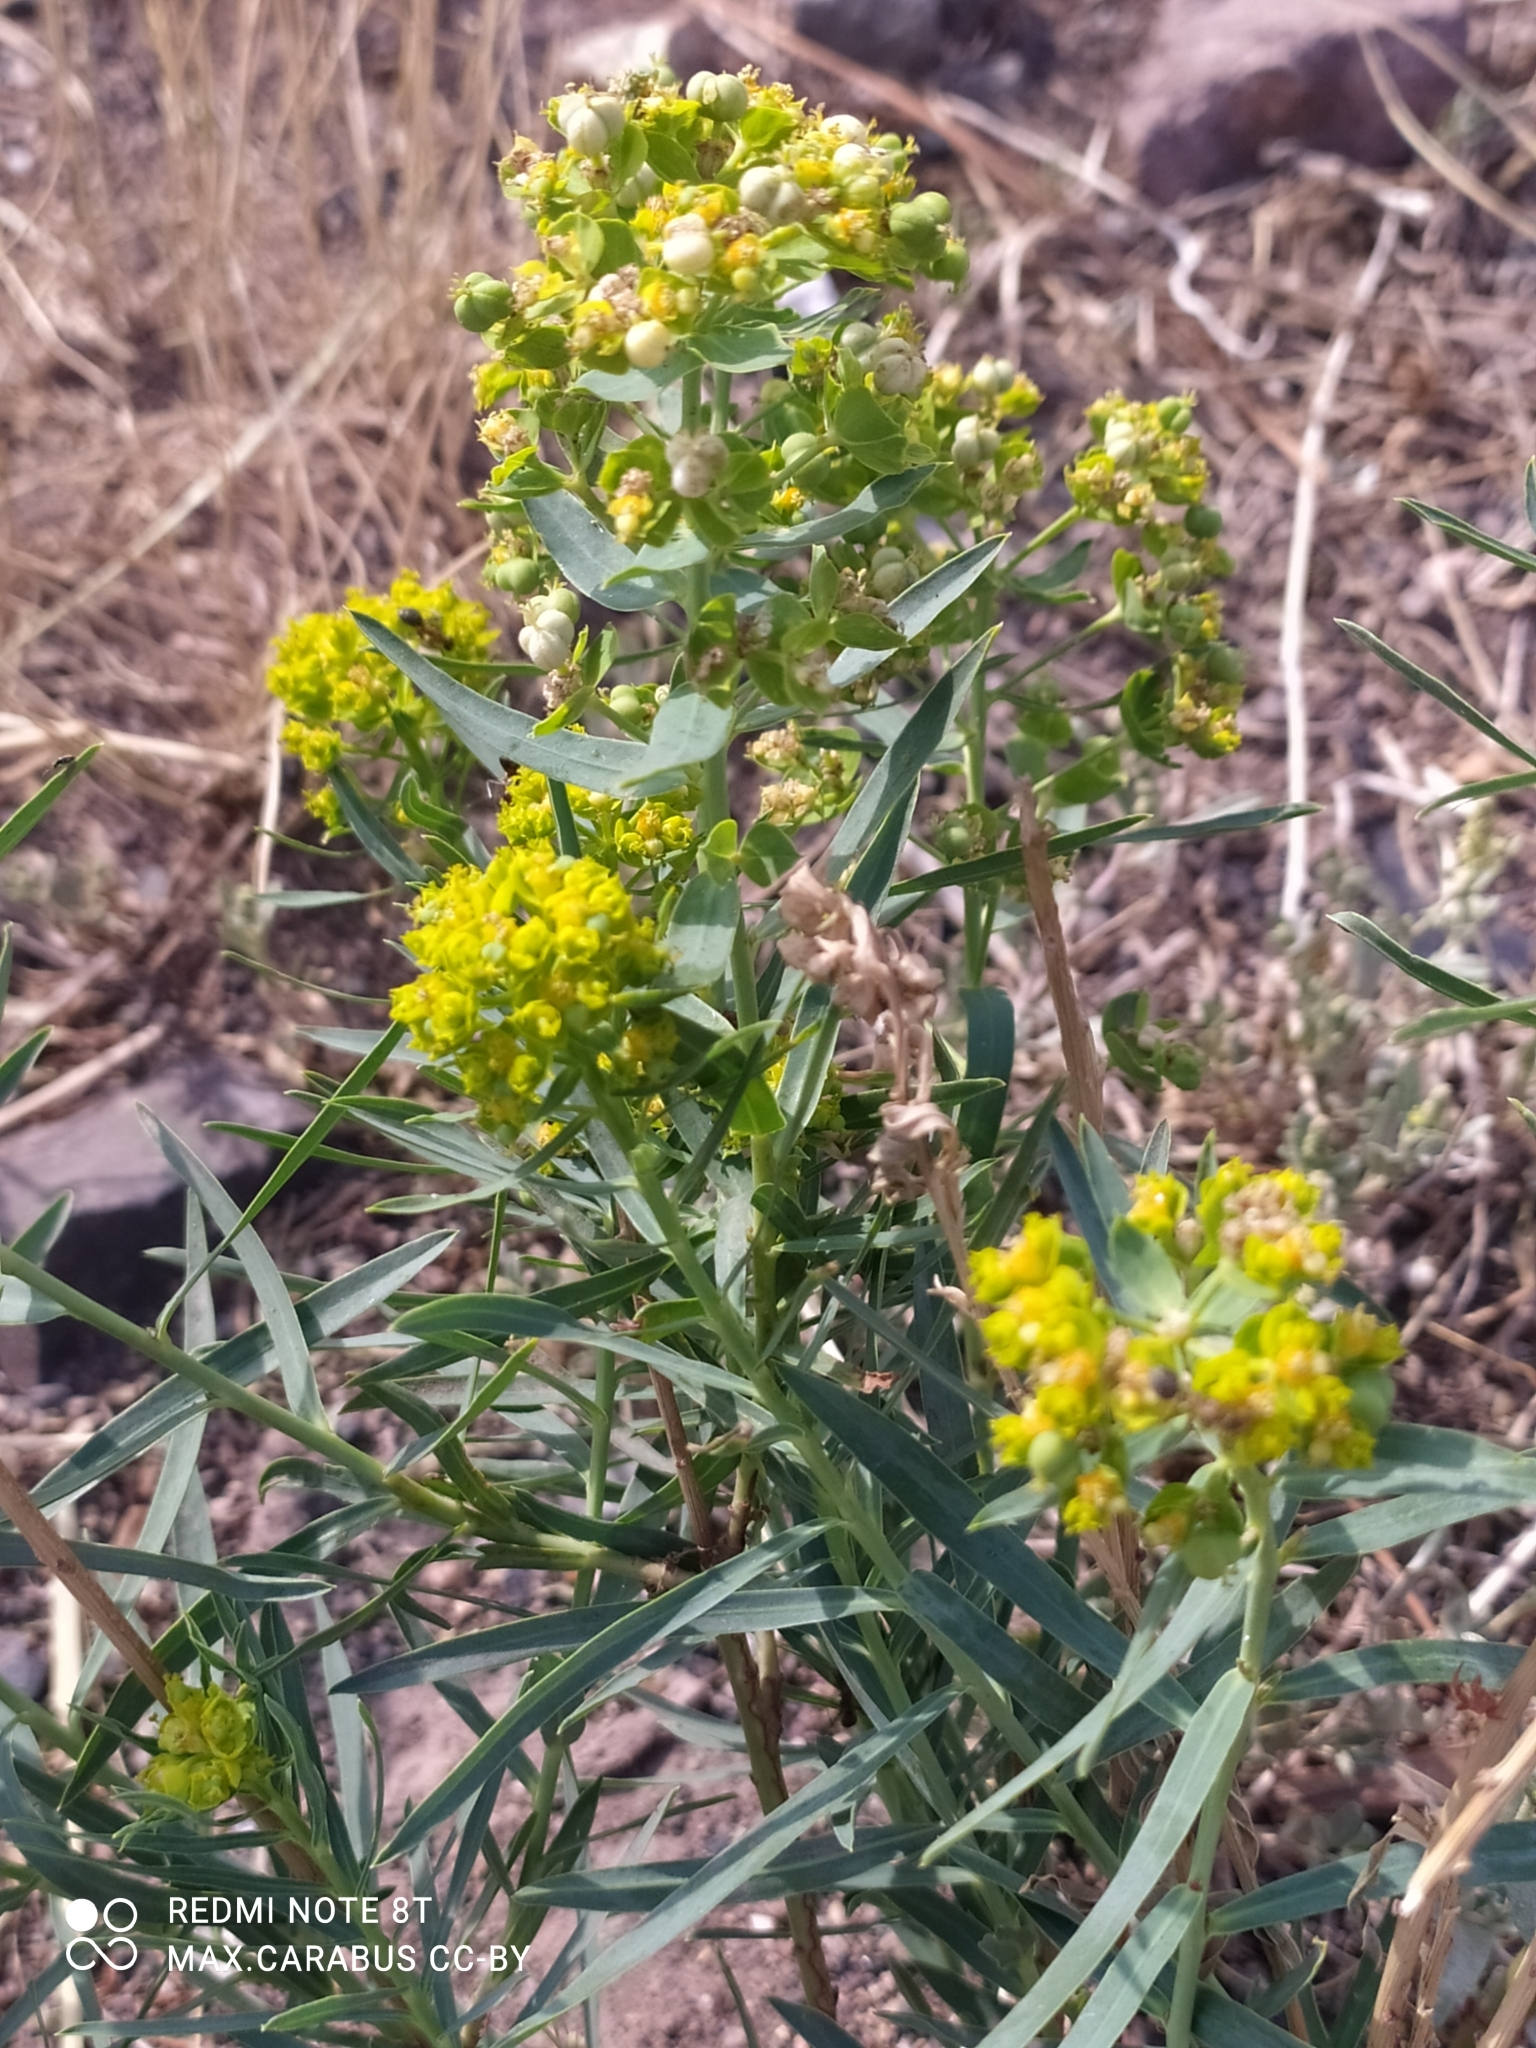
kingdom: Plantae
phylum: Tracheophyta
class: Magnoliopsida
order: Malpighiales
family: Euphorbiaceae
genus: Euphorbia
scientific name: Euphorbia virgata
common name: Leafy spurge
